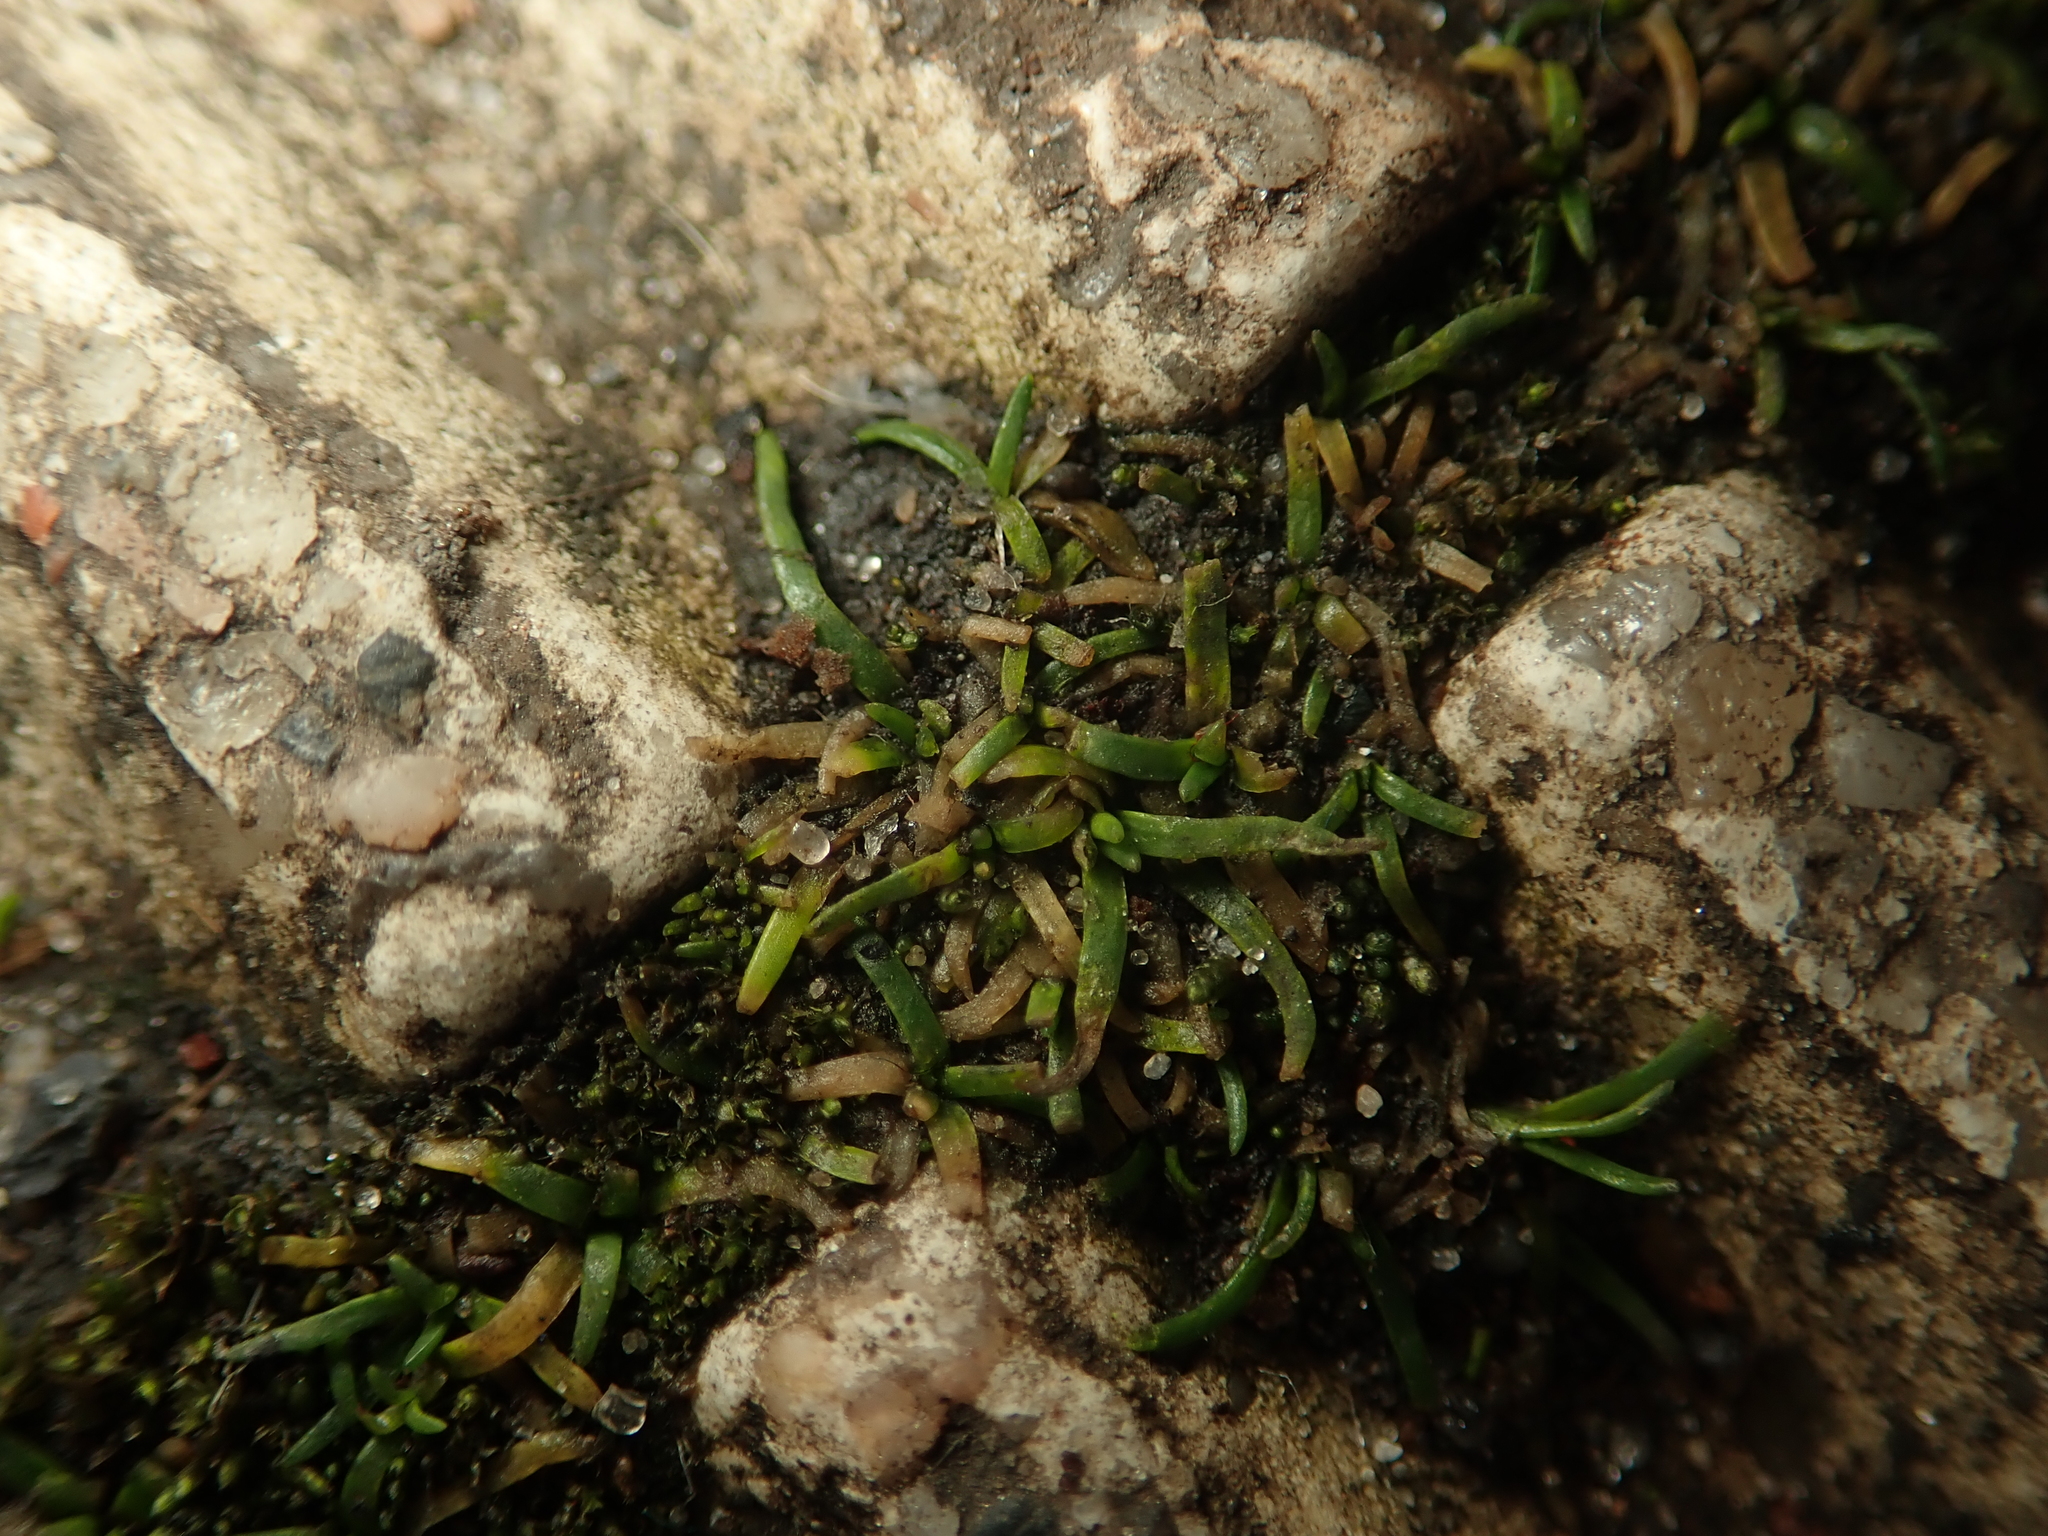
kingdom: Plantae
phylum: Tracheophyta
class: Magnoliopsida
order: Caryophyllales
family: Caryophyllaceae
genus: Sagina
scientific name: Sagina procumbens
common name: Procumbent pearlwort
